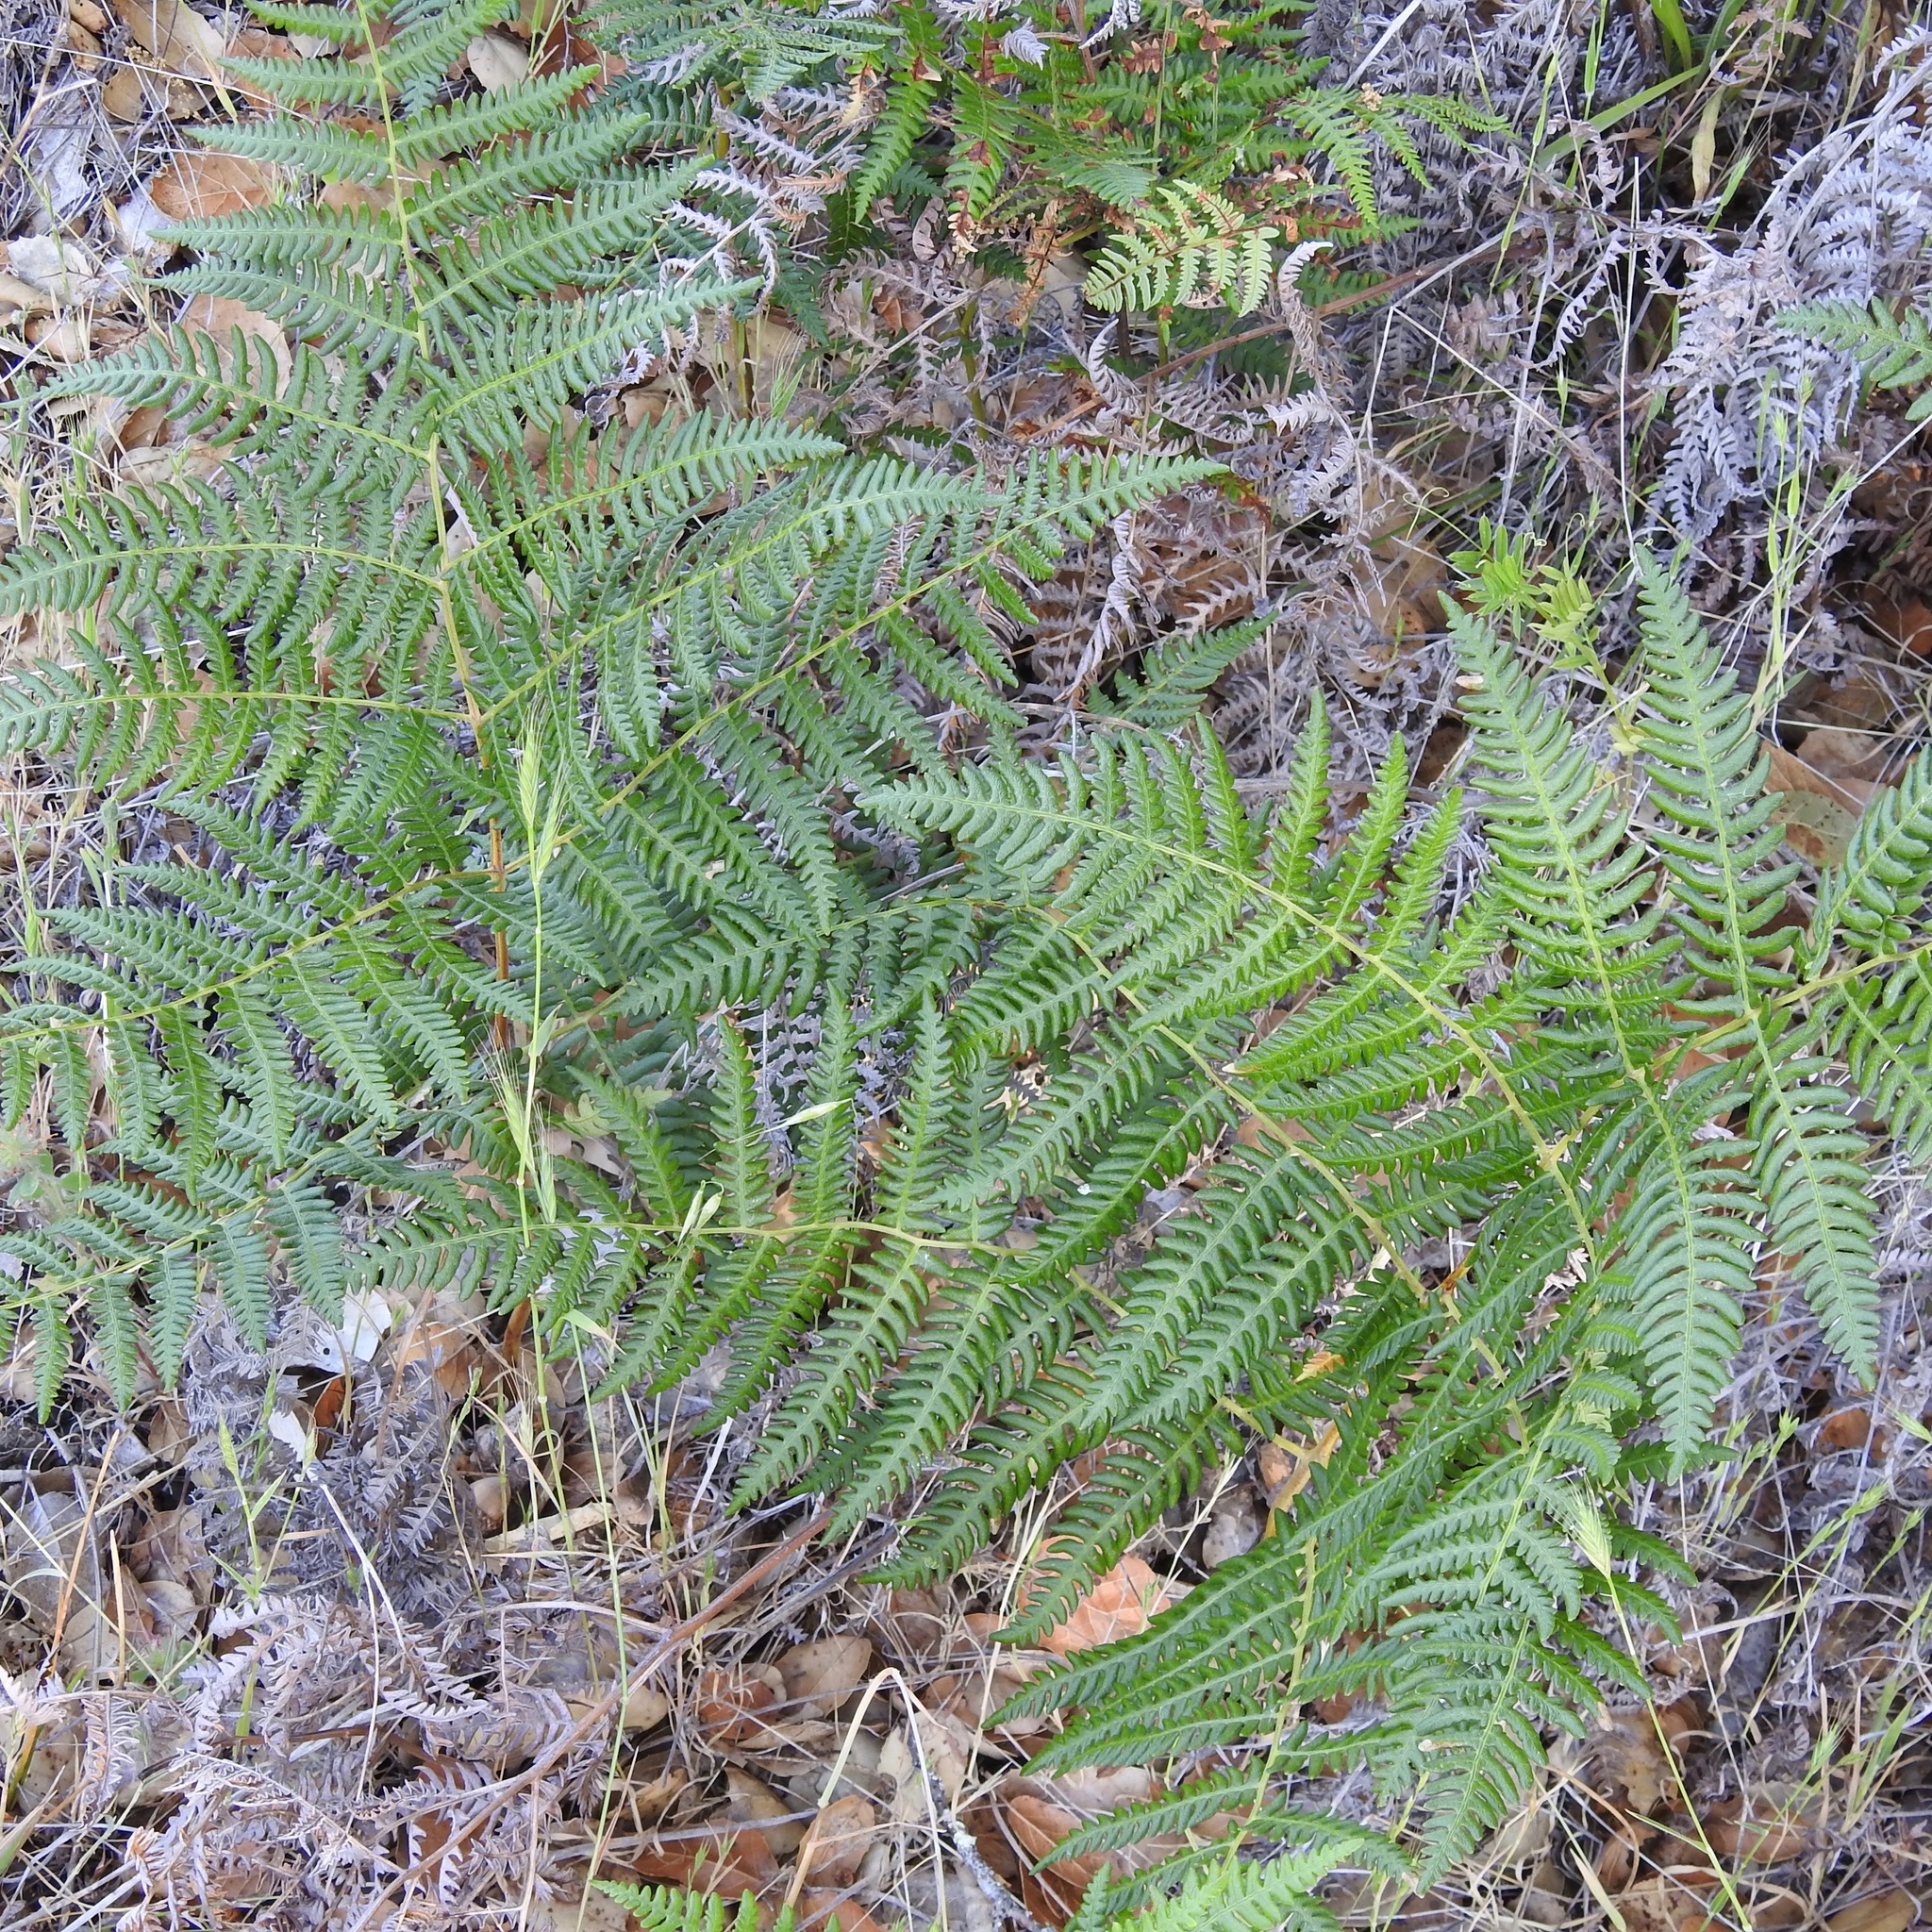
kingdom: Plantae
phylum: Tracheophyta
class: Polypodiopsida
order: Polypodiales
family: Dennstaedtiaceae
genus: Pteridium
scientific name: Pteridium aquilinum
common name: Bracken
